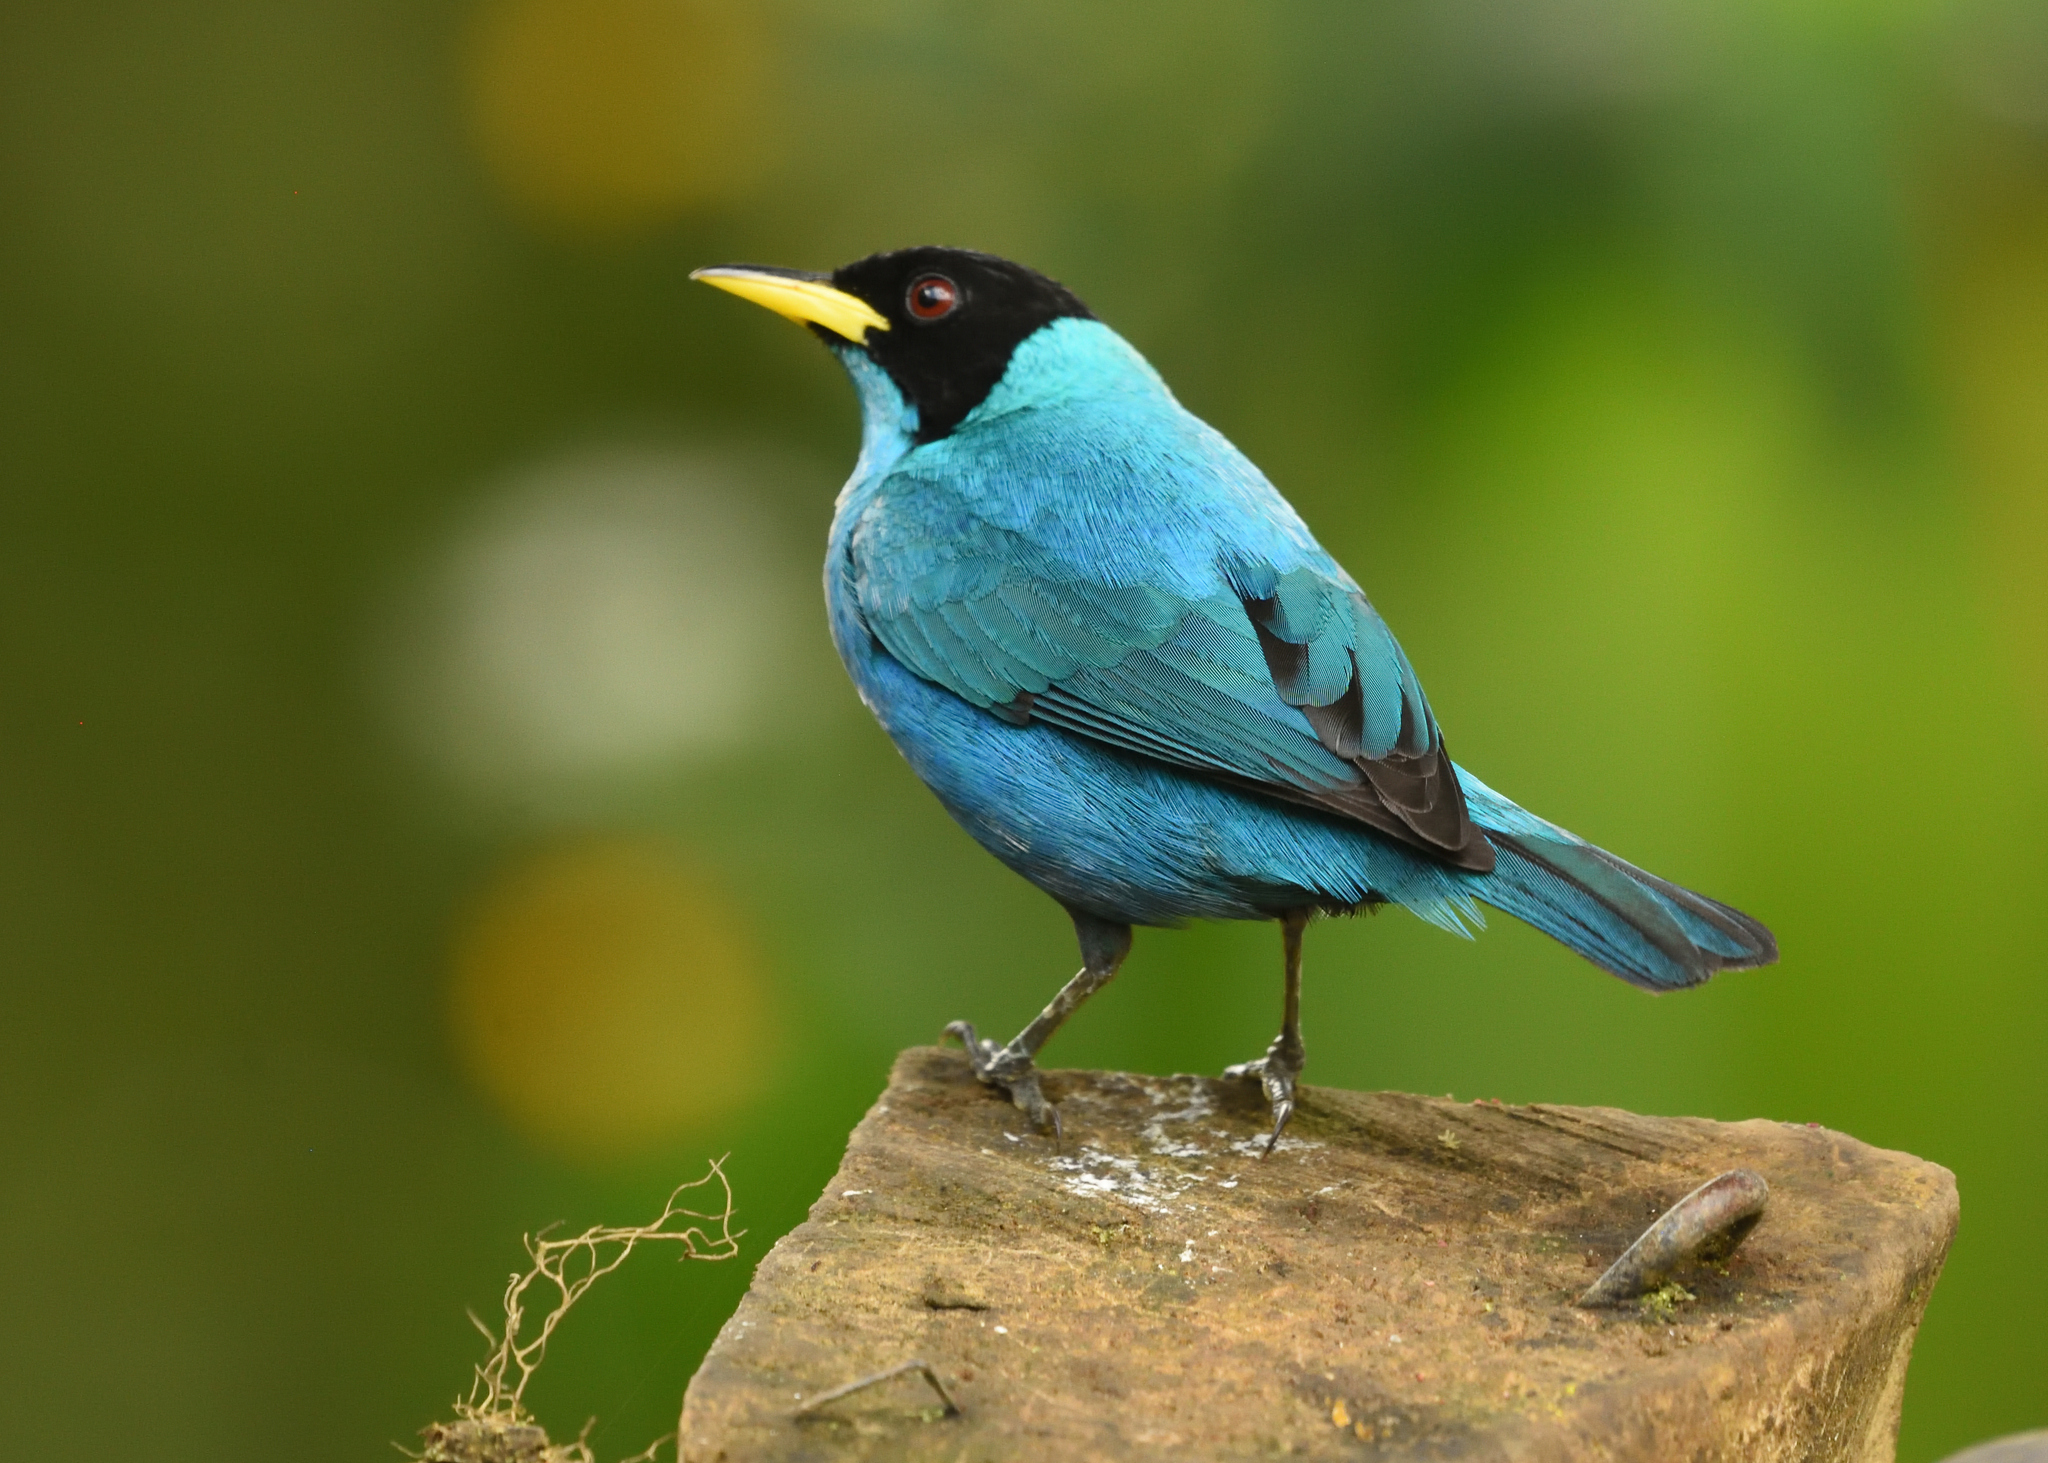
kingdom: Animalia
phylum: Chordata
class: Aves
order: Passeriformes
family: Thraupidae
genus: Chlorophanes
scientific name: Chlorophanes spiza
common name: Green honeycreeper
